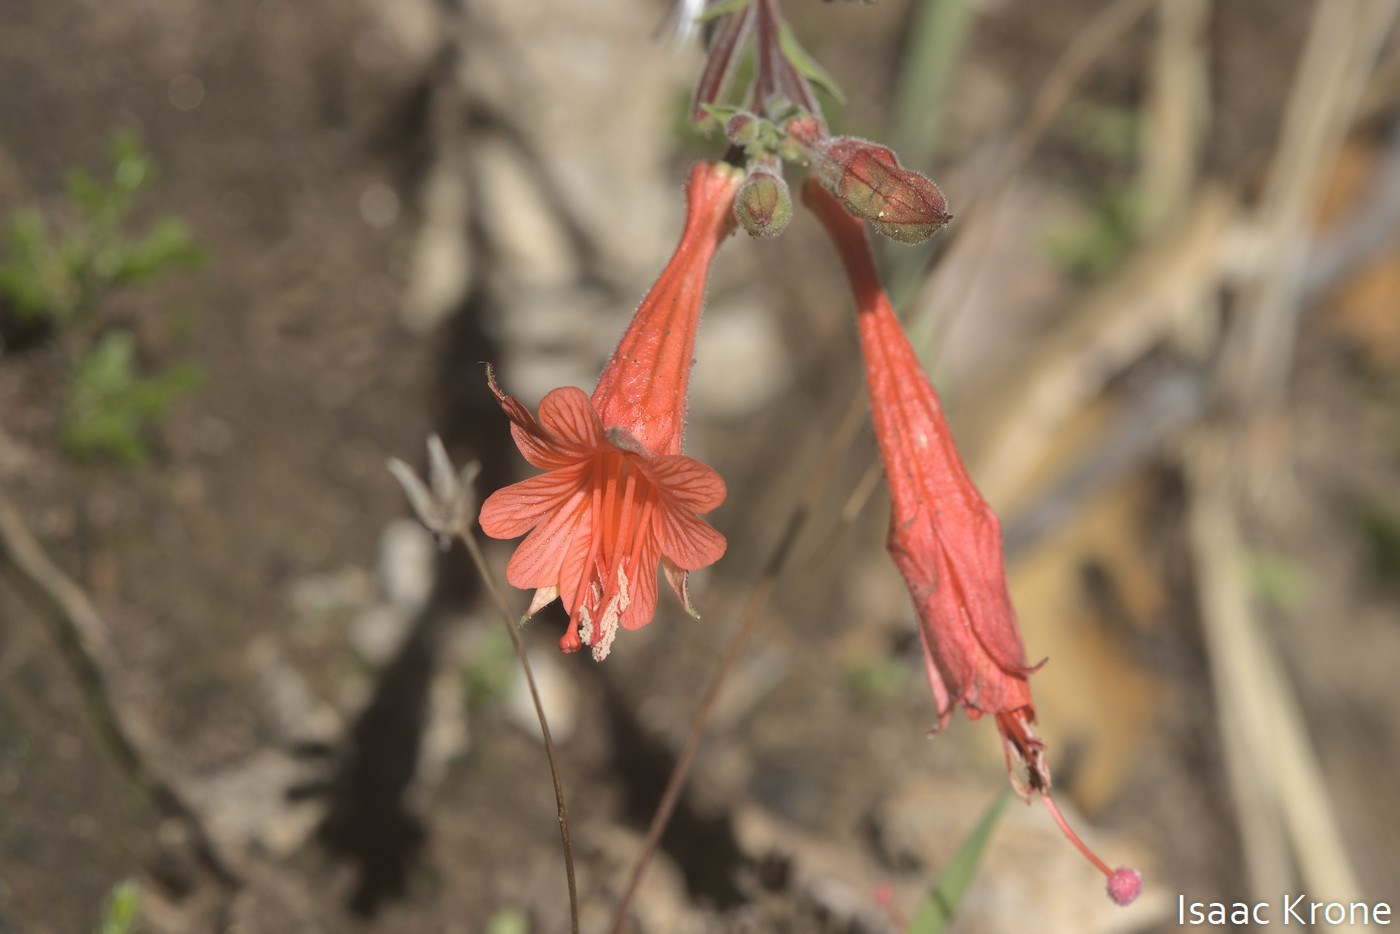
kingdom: Plantae
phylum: Tracheophyta
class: Magnoliopsida
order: Myrtales
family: Onagraceae
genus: Epilobium
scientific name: Epilobium canum
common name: California-fuchsia
